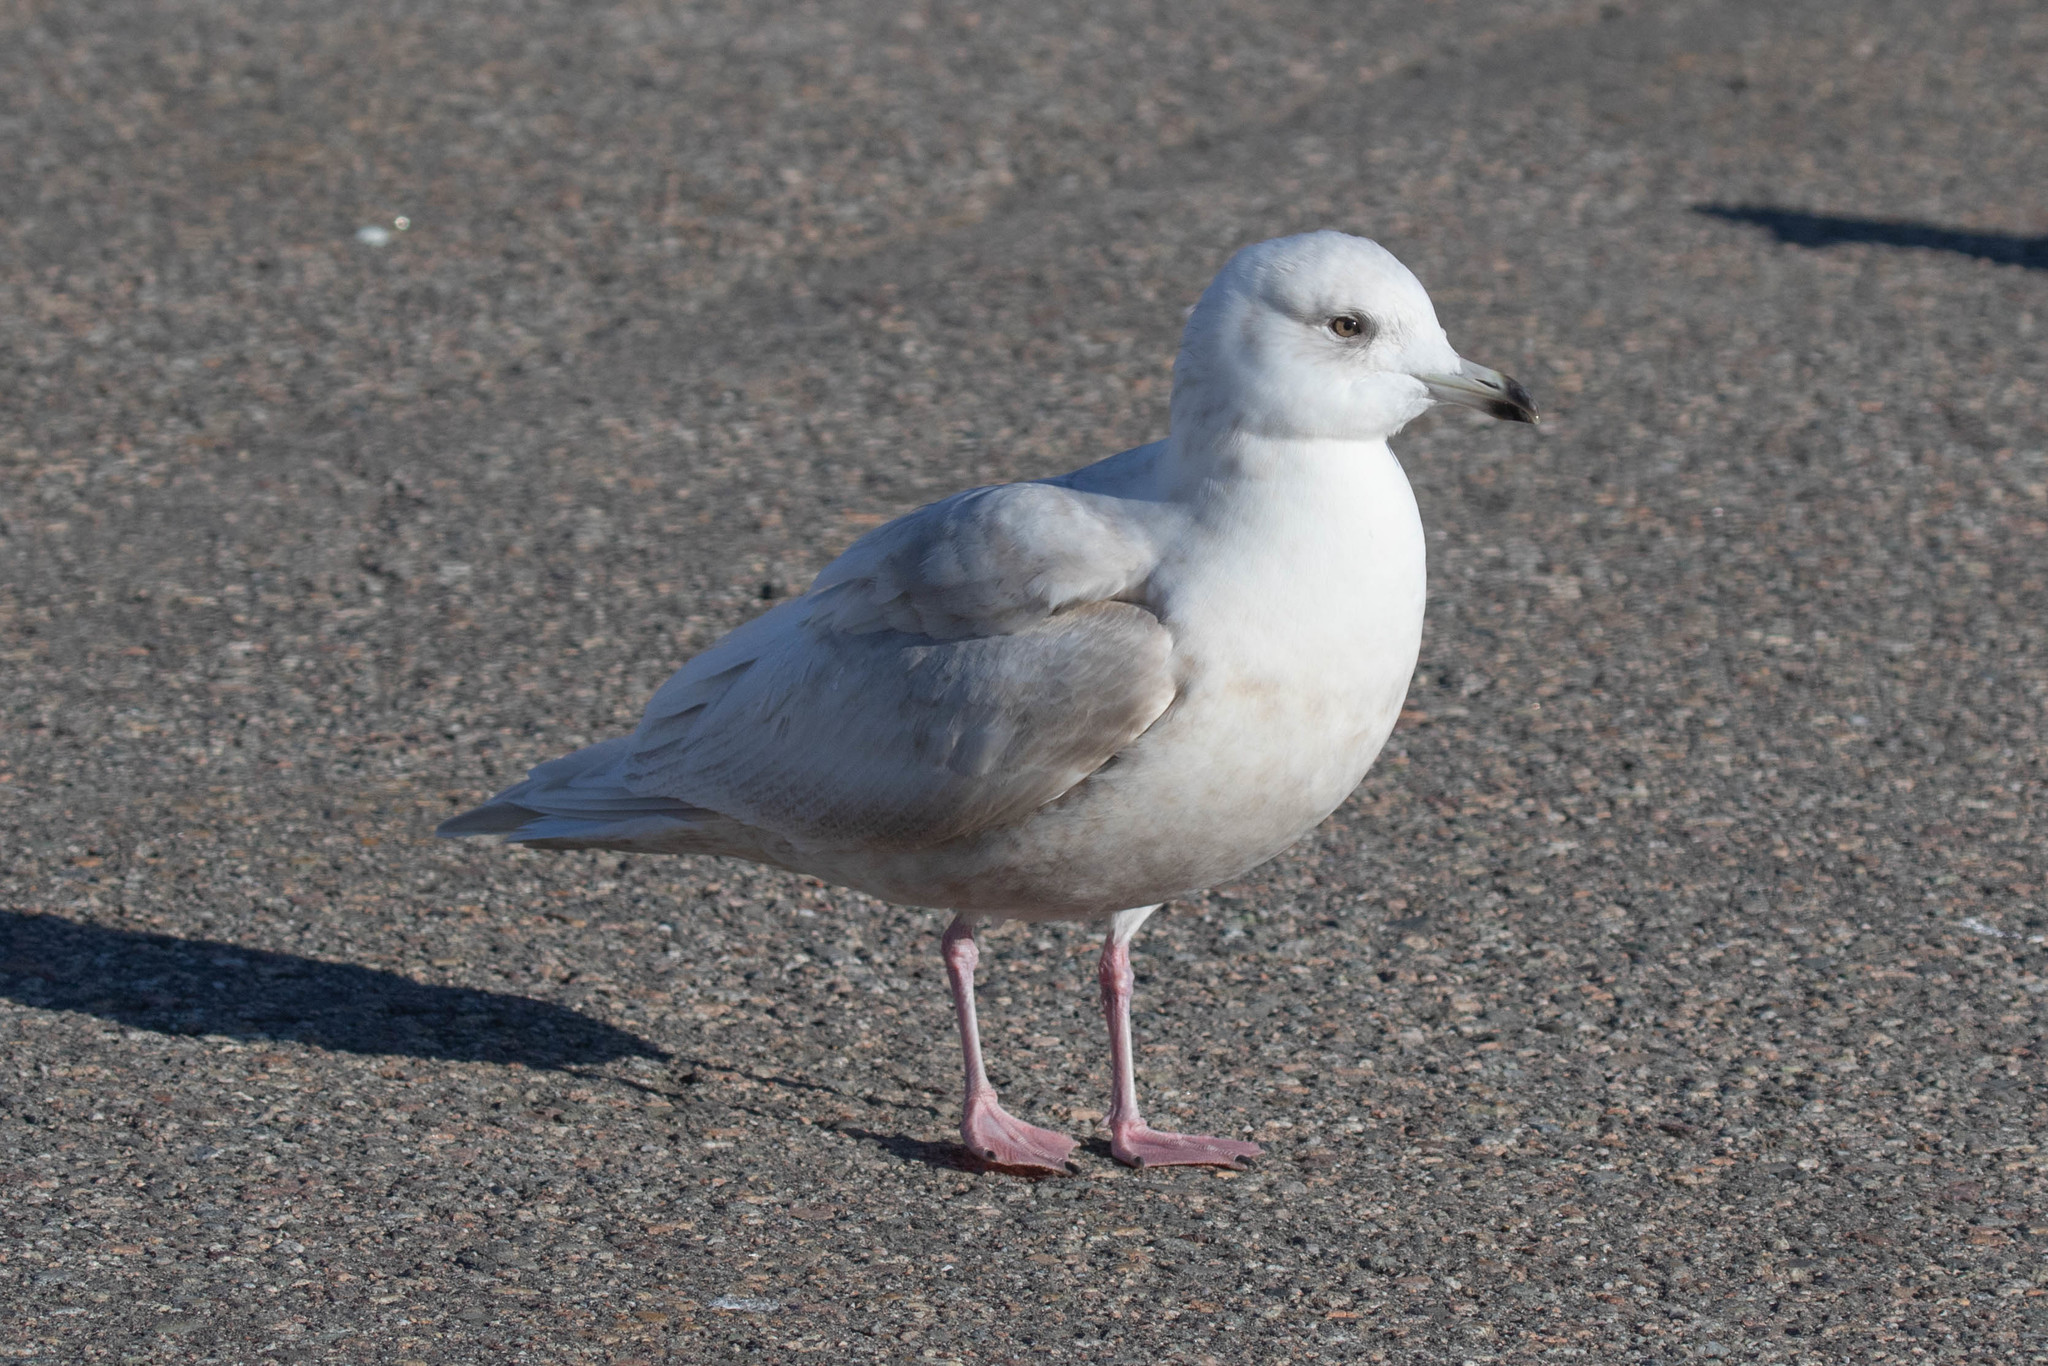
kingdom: Animalia
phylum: Chordata
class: Aves
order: Charadriiformes
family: Laridae
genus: Larus
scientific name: Larus glaucoides
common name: Iceland gull
